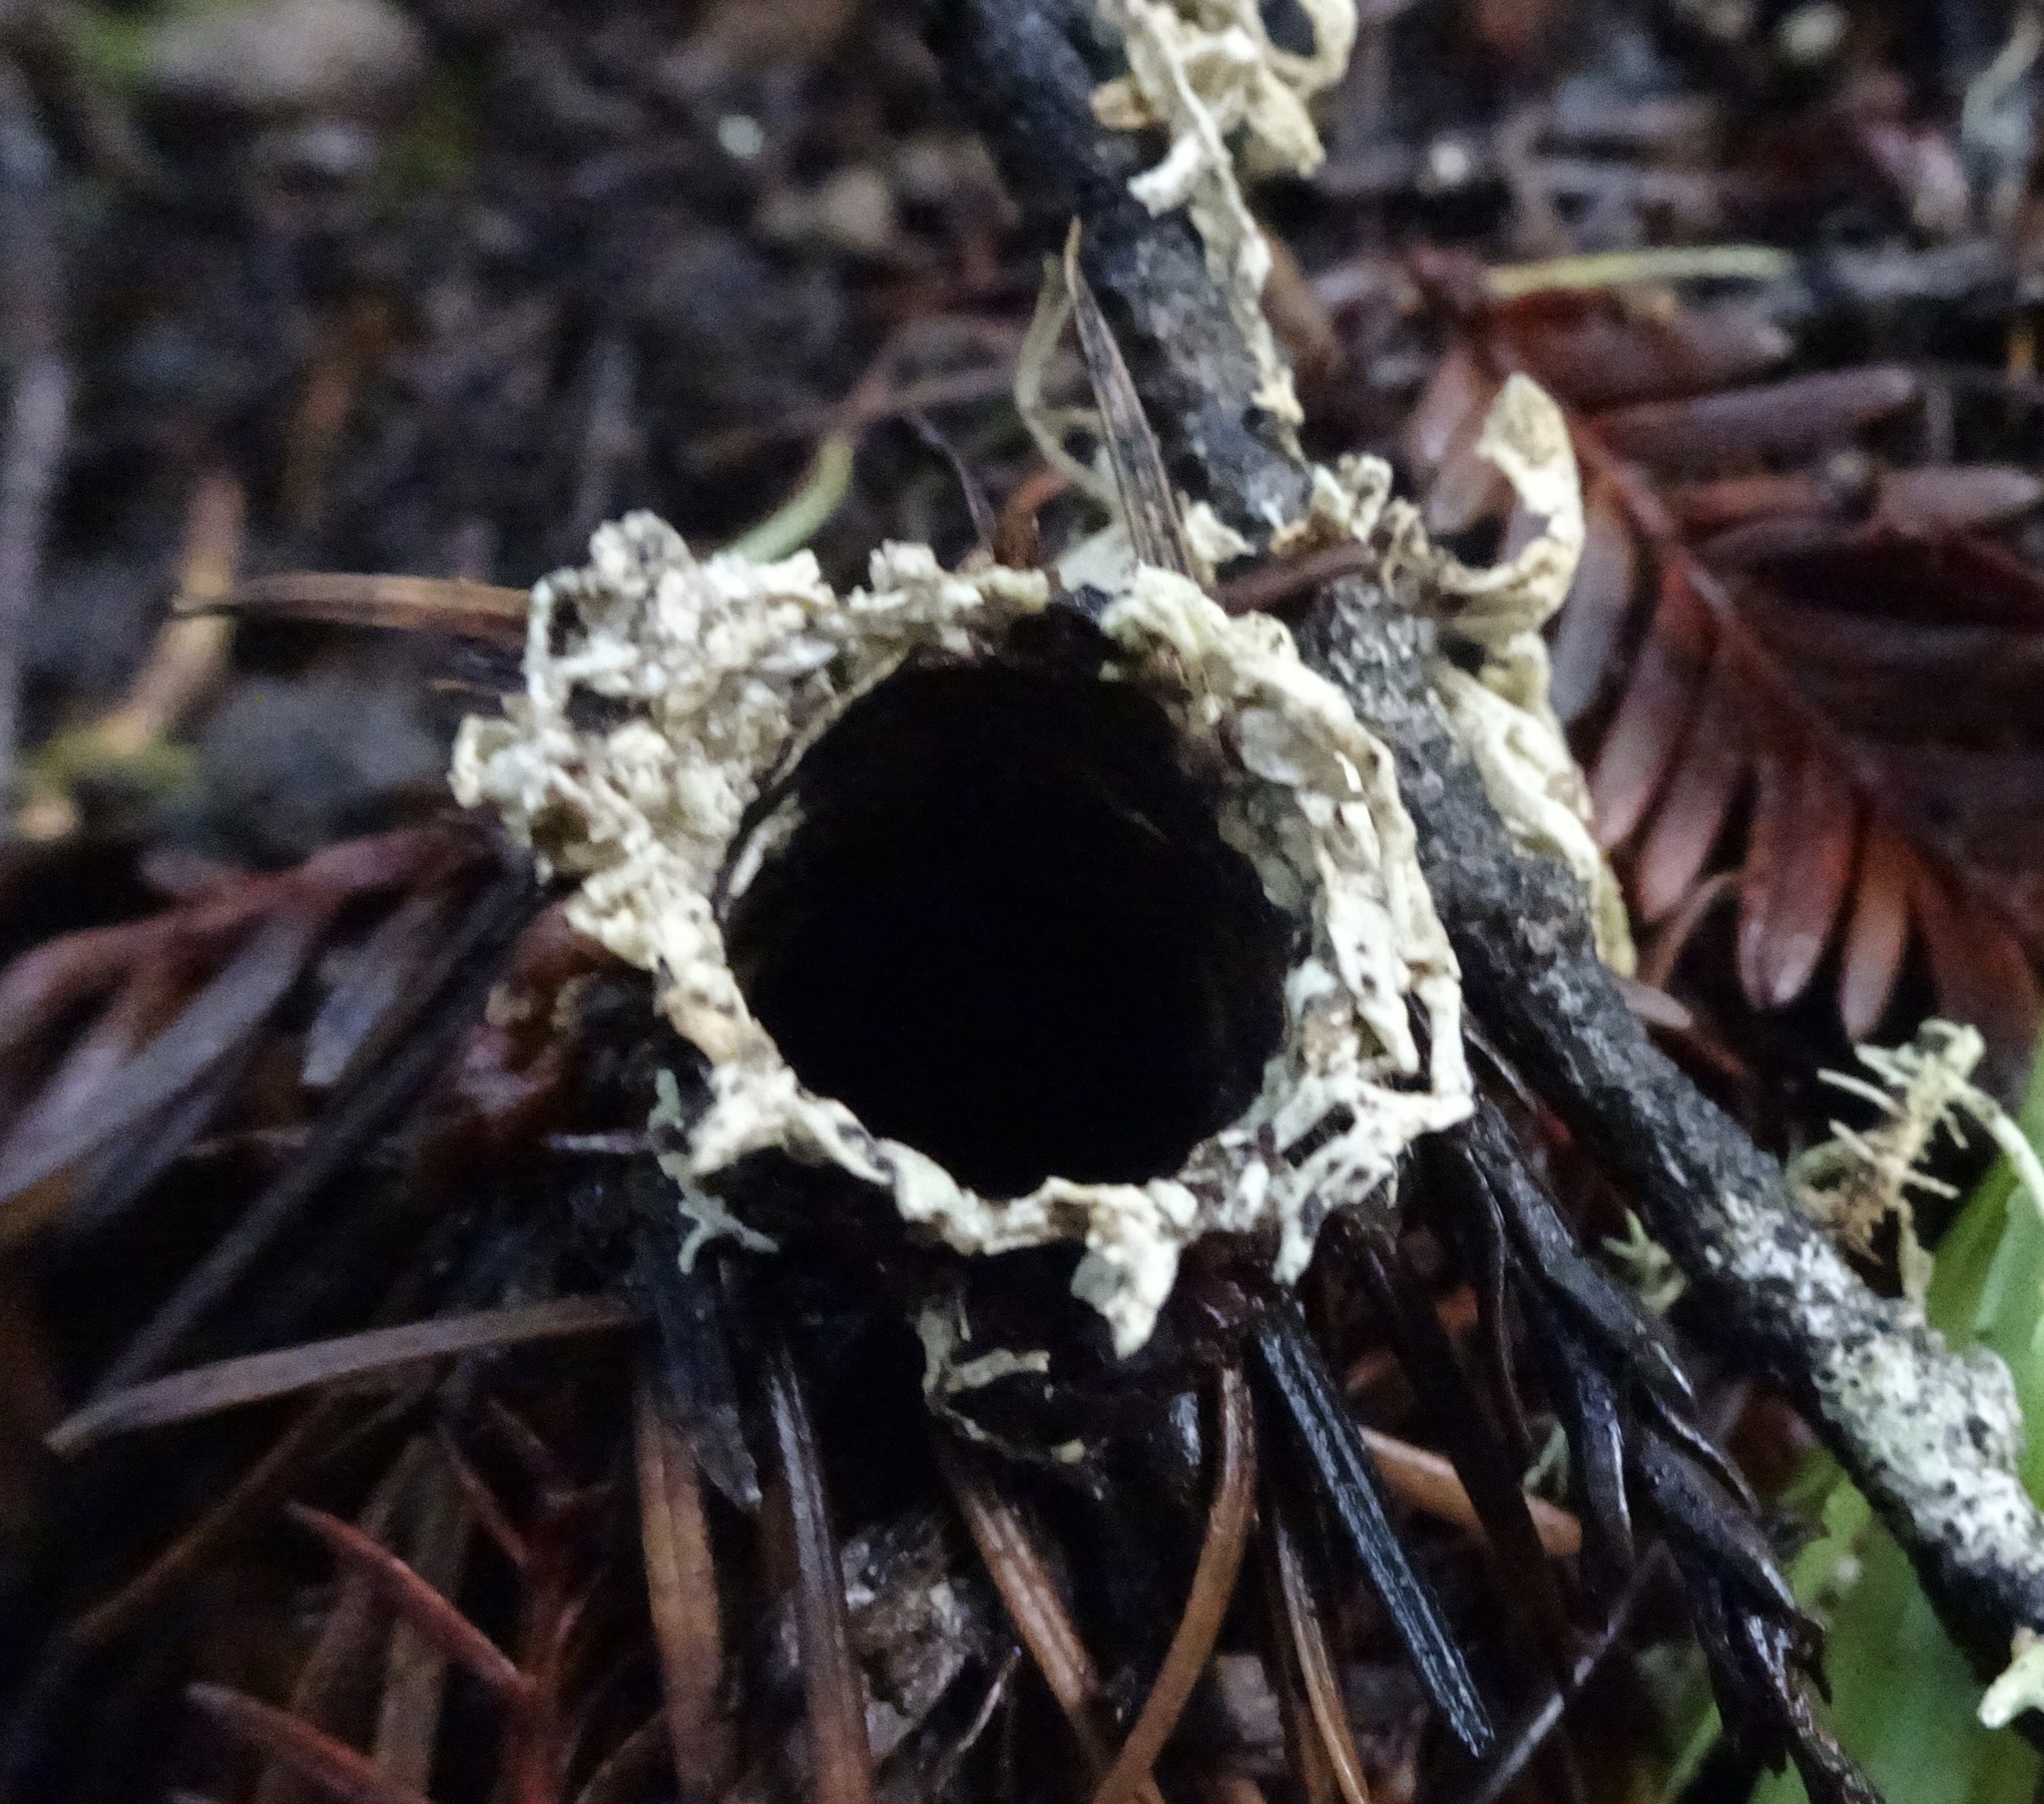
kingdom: Animalia
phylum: Arthropoda
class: Arachnida
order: Araneae
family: Antrodiaetidae
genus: Atypoides
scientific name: Atypoides riversi
